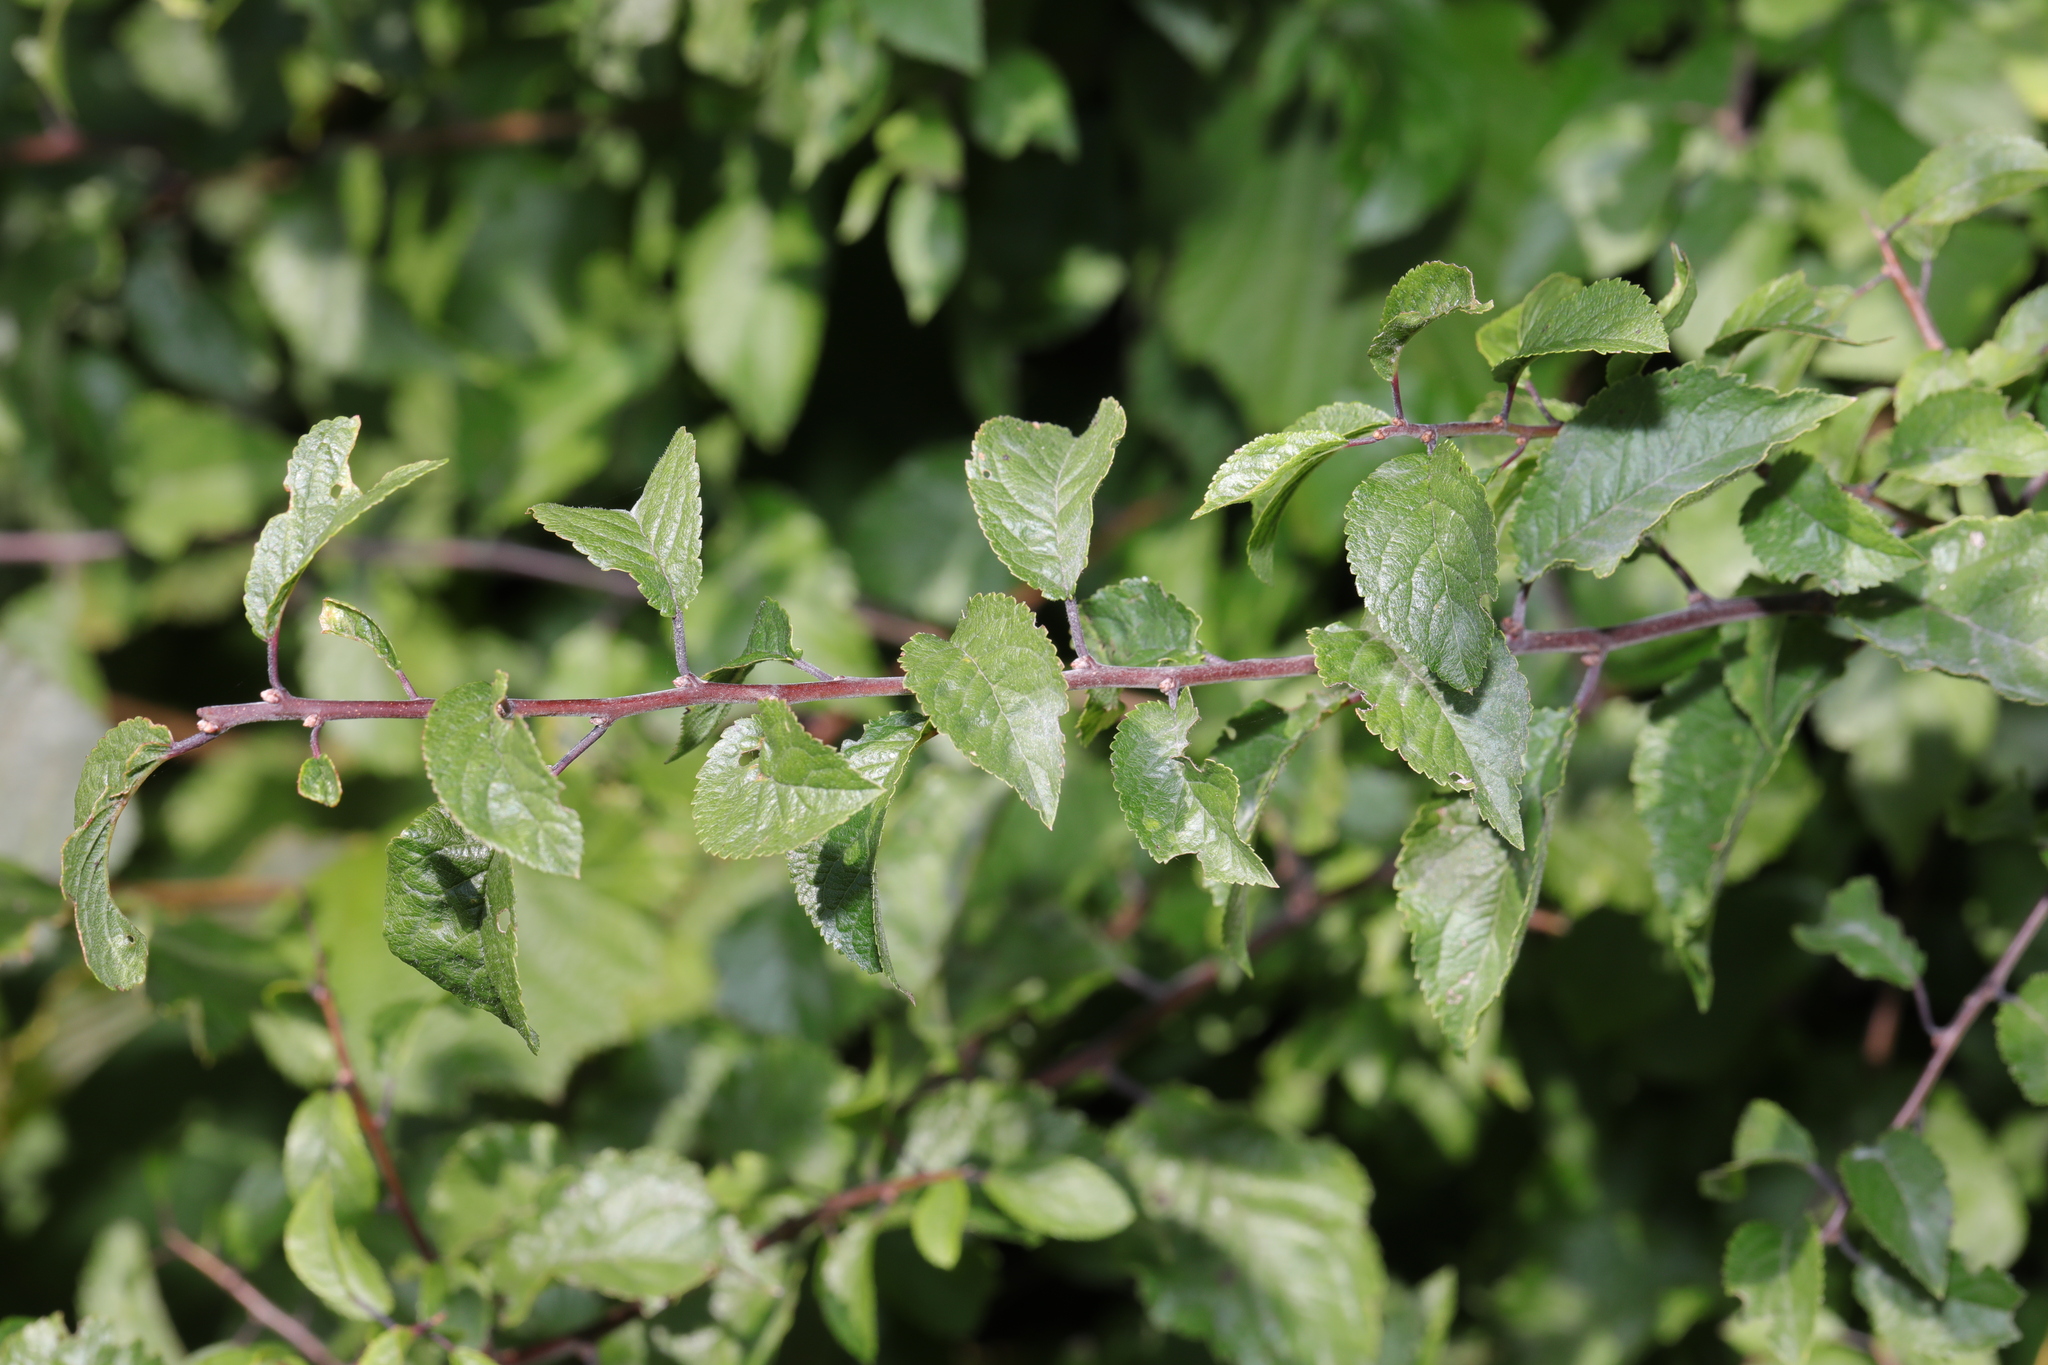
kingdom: Plantae
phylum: Tracheophyta
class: Magnoliopsida
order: Rosales
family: Rosaceae
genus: Prunus
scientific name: Prunus spinosa
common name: Blackthorn
